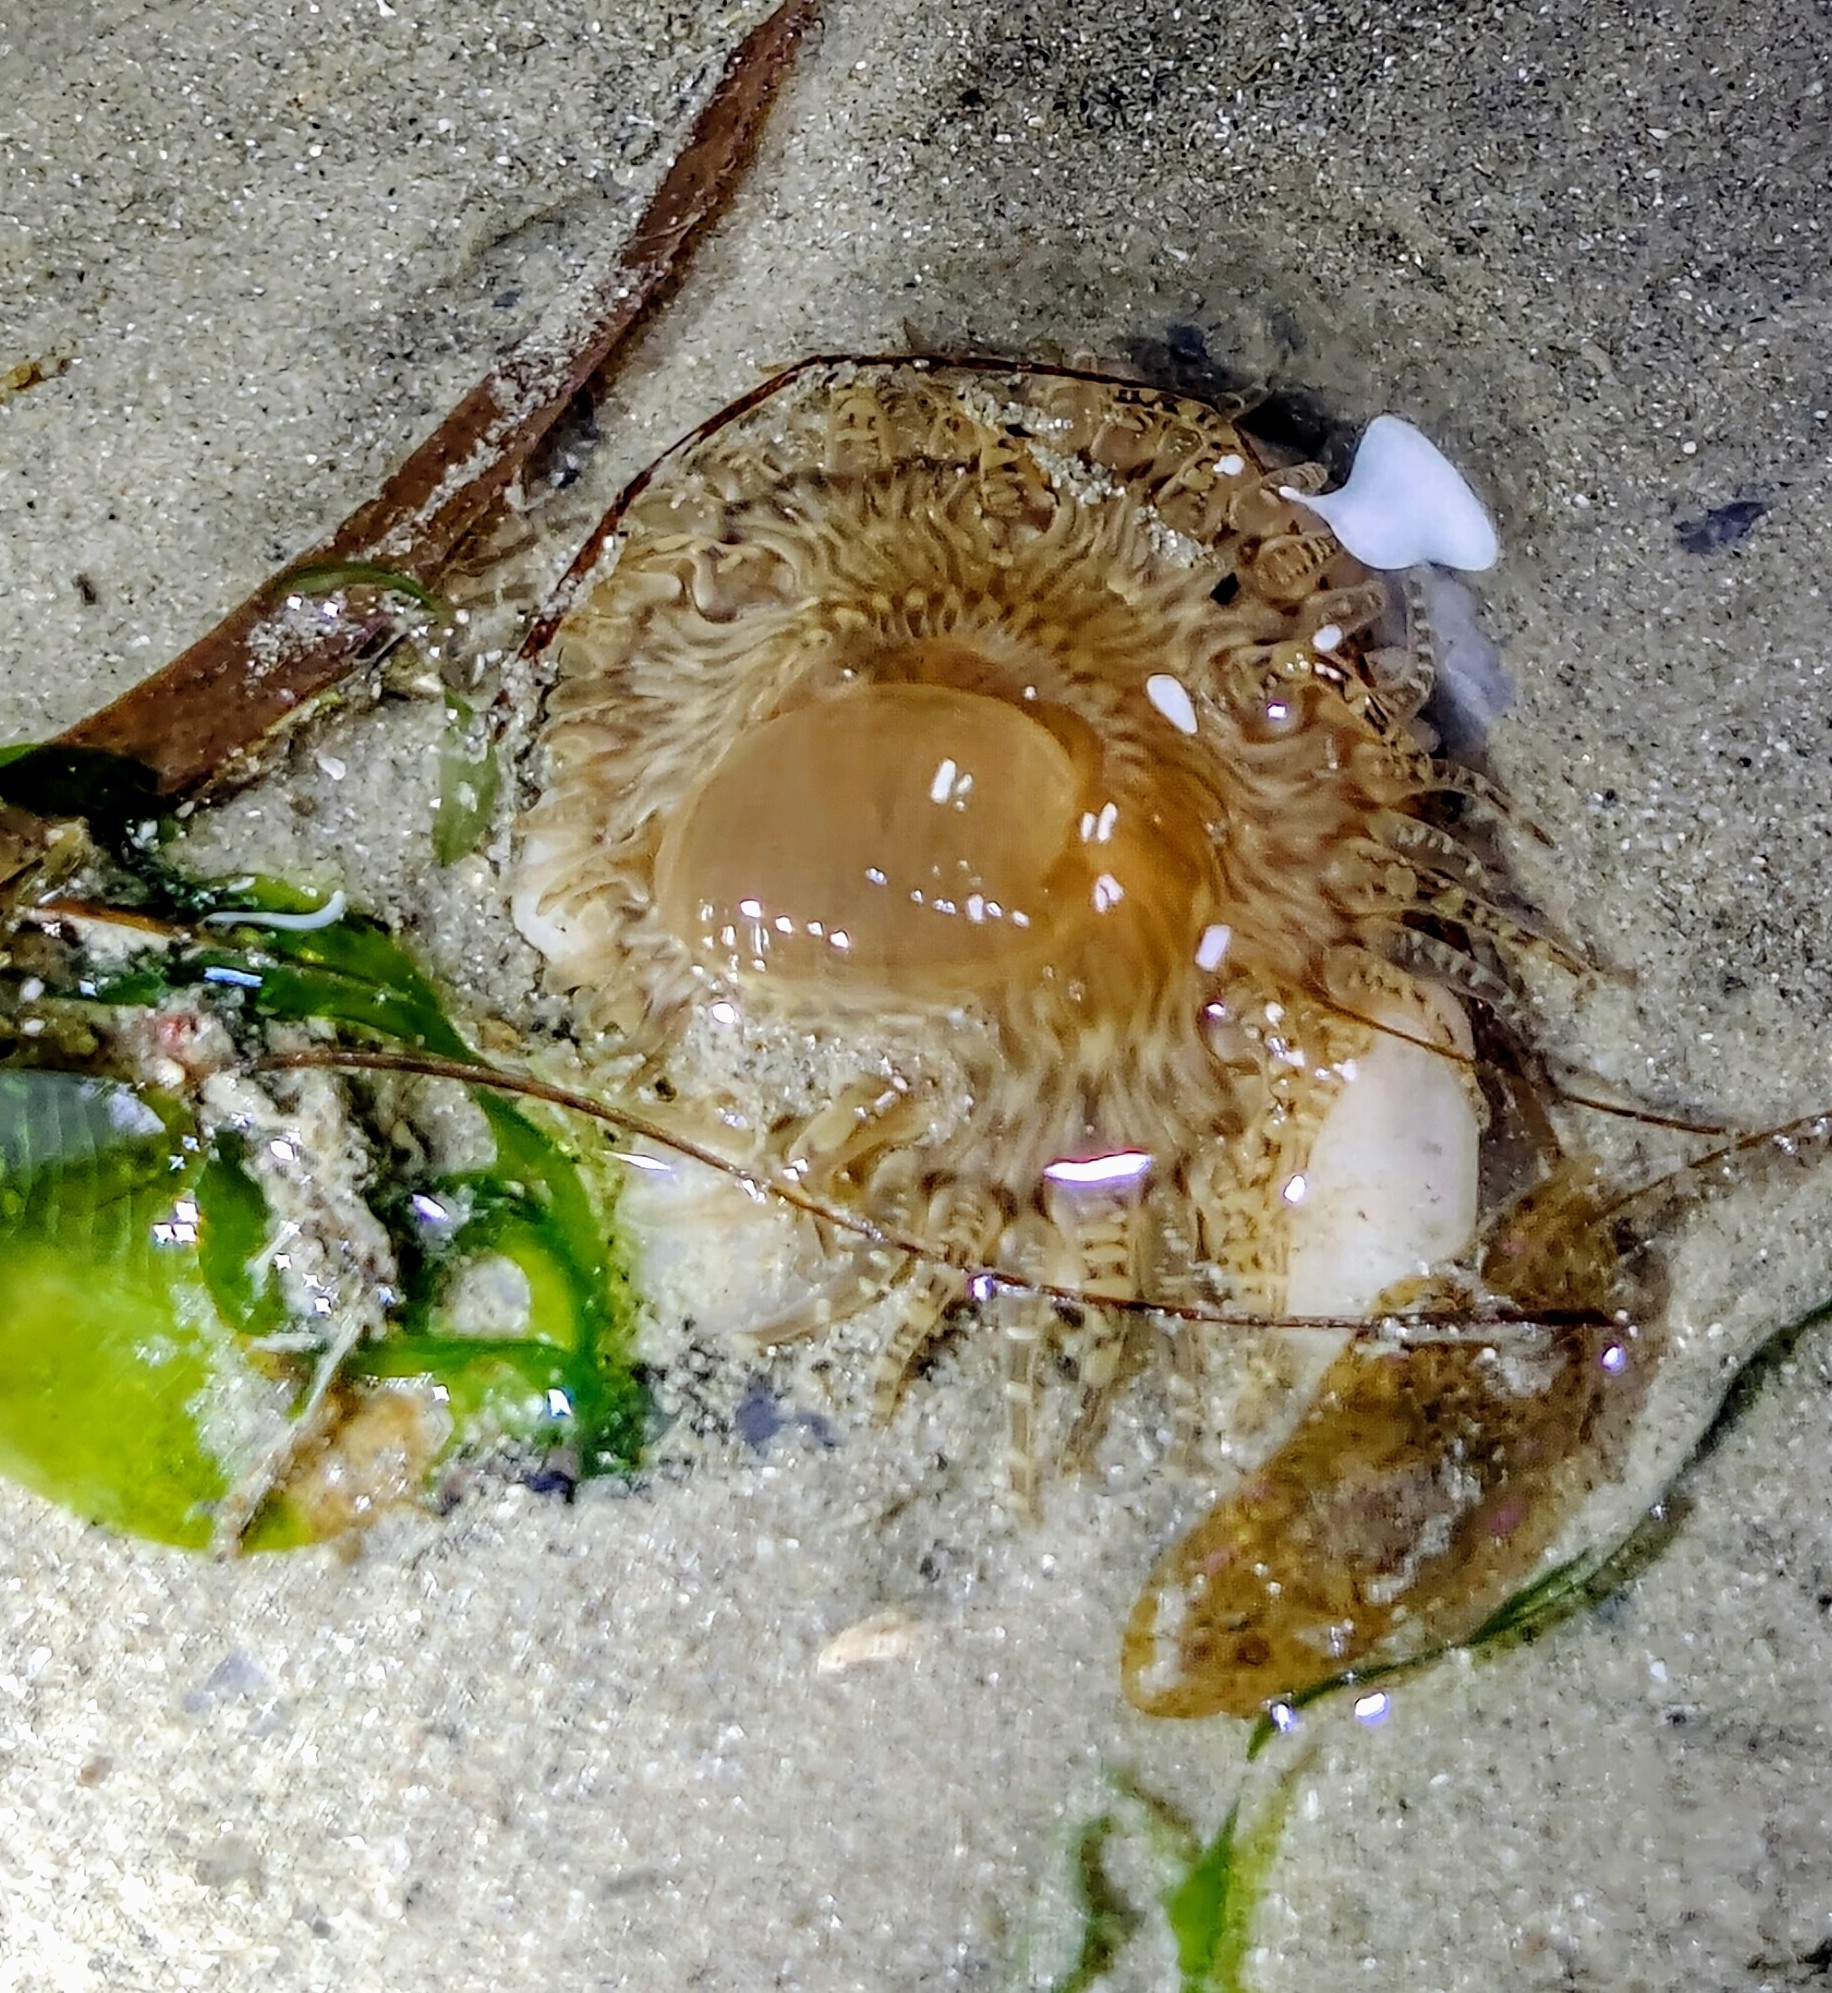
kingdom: Animalia
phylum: Cnidaria
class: Anthozoa
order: Actiniaria
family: Actiniidae
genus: Paracondylactis
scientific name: Paracondylactis hertwigi
